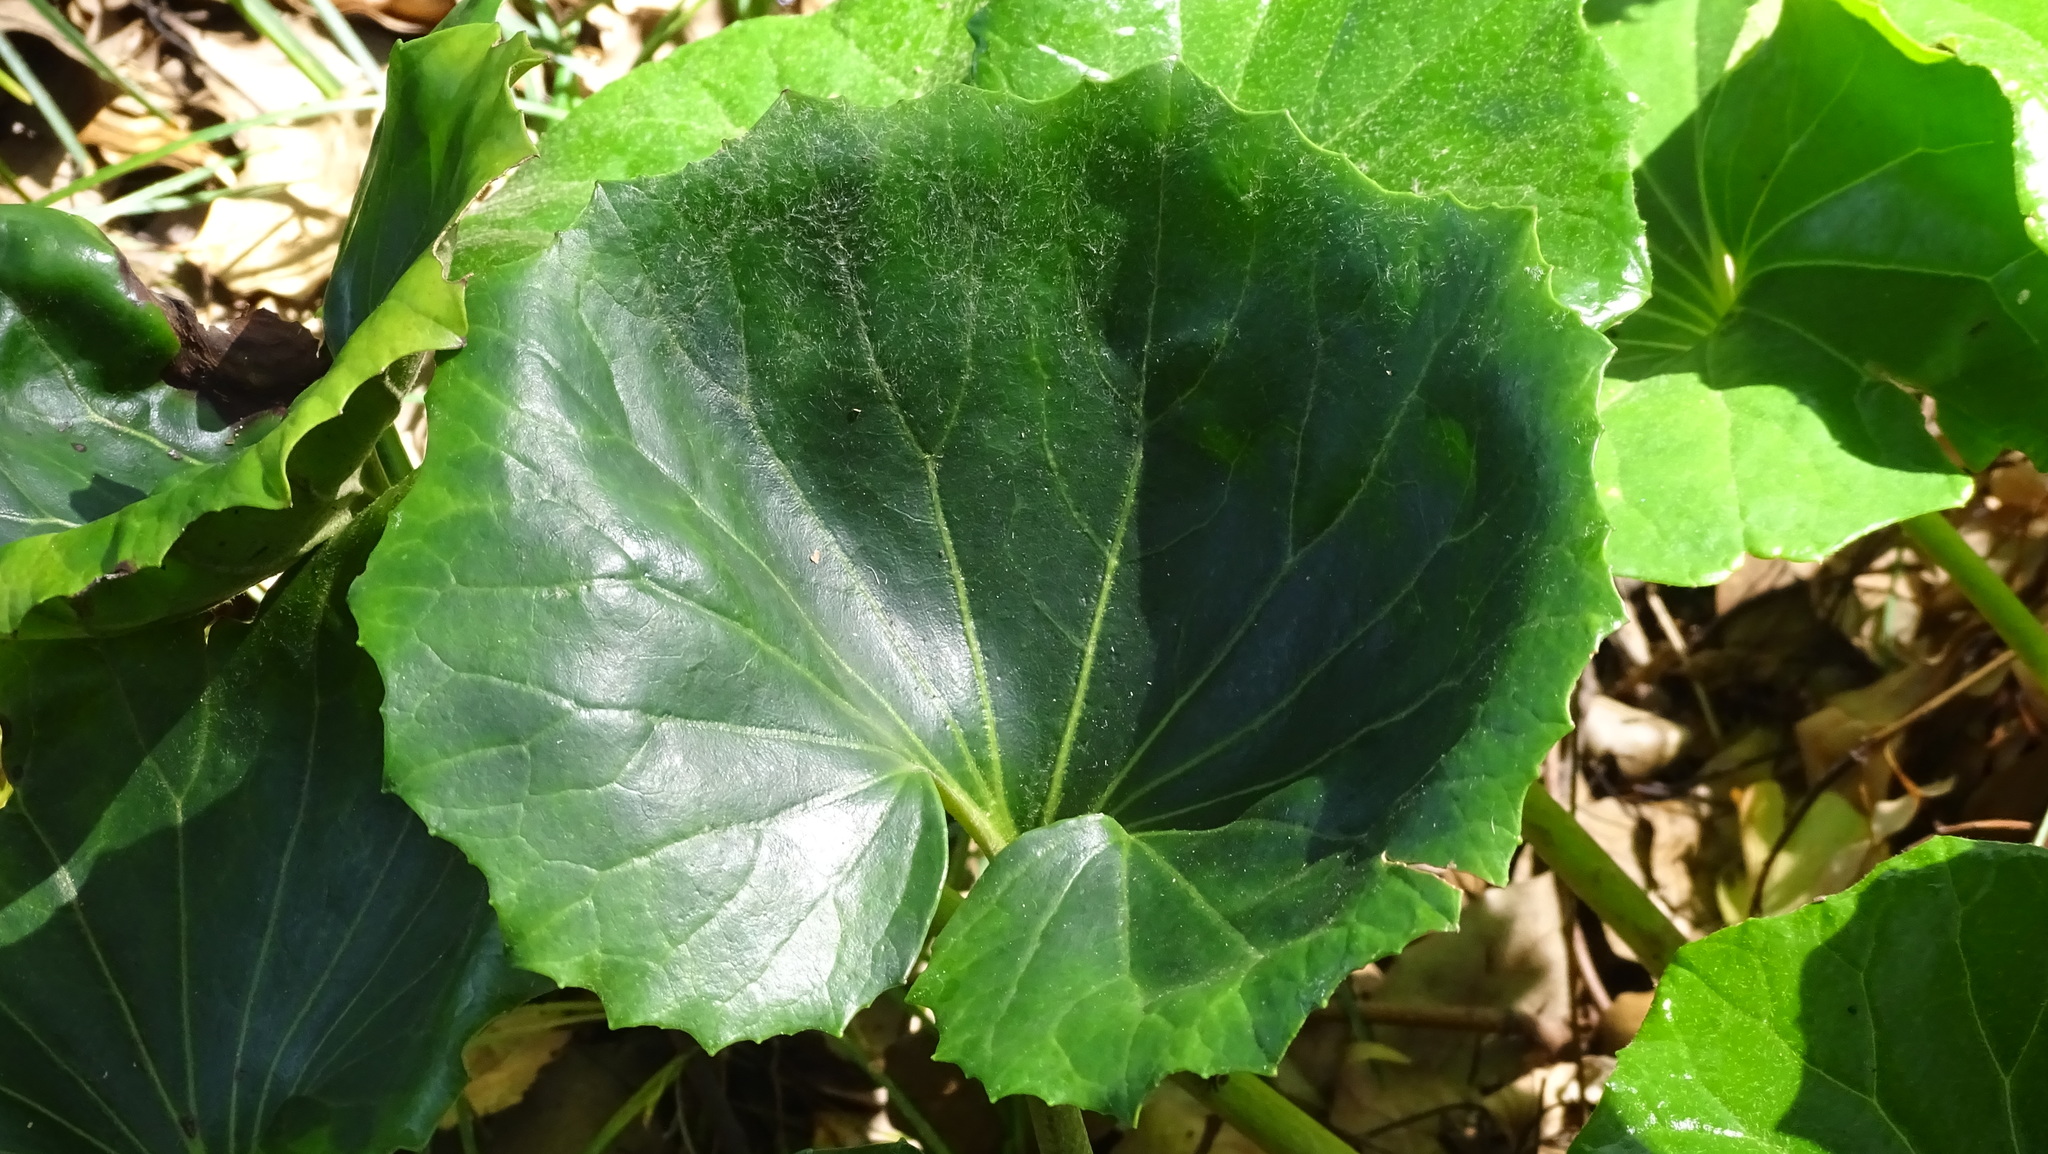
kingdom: Plantae
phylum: Tracheophyta
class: Magnoliopsida
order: Asterales
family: Asteraceae
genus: Farfugium
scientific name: Farfugium japonicum
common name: Leopardplant
